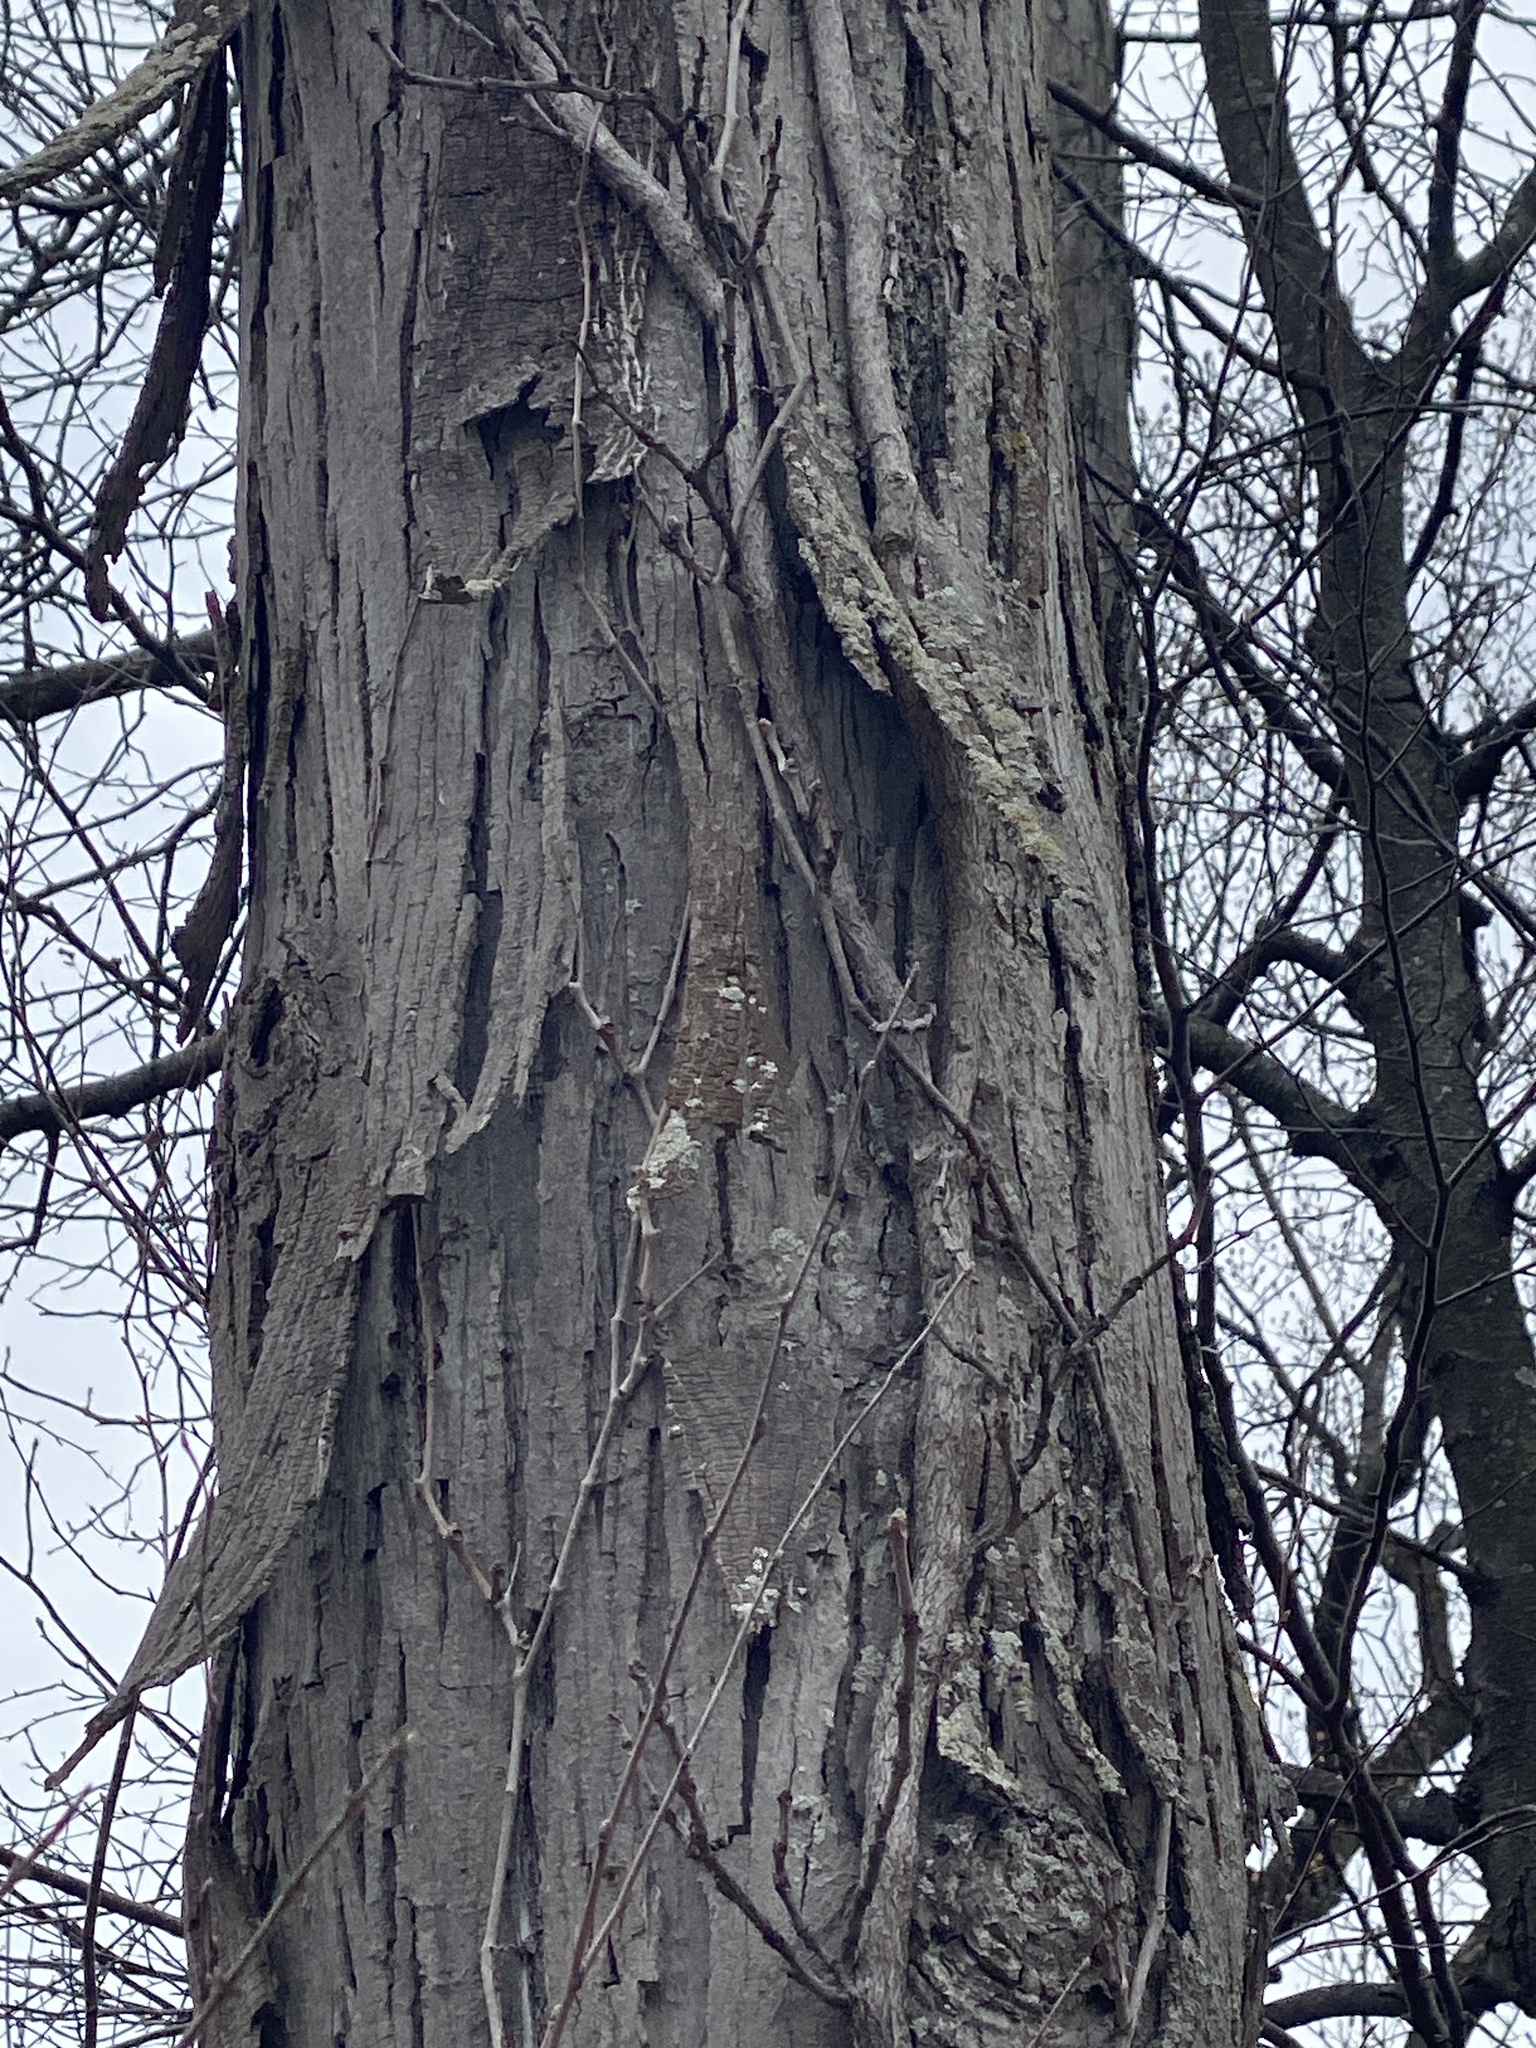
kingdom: Plantae
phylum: Tracheophyta
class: Magnoliopsida
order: Fagales
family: Juglandaceae
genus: Carya
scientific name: Carya ovata
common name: Shagbark hickory
